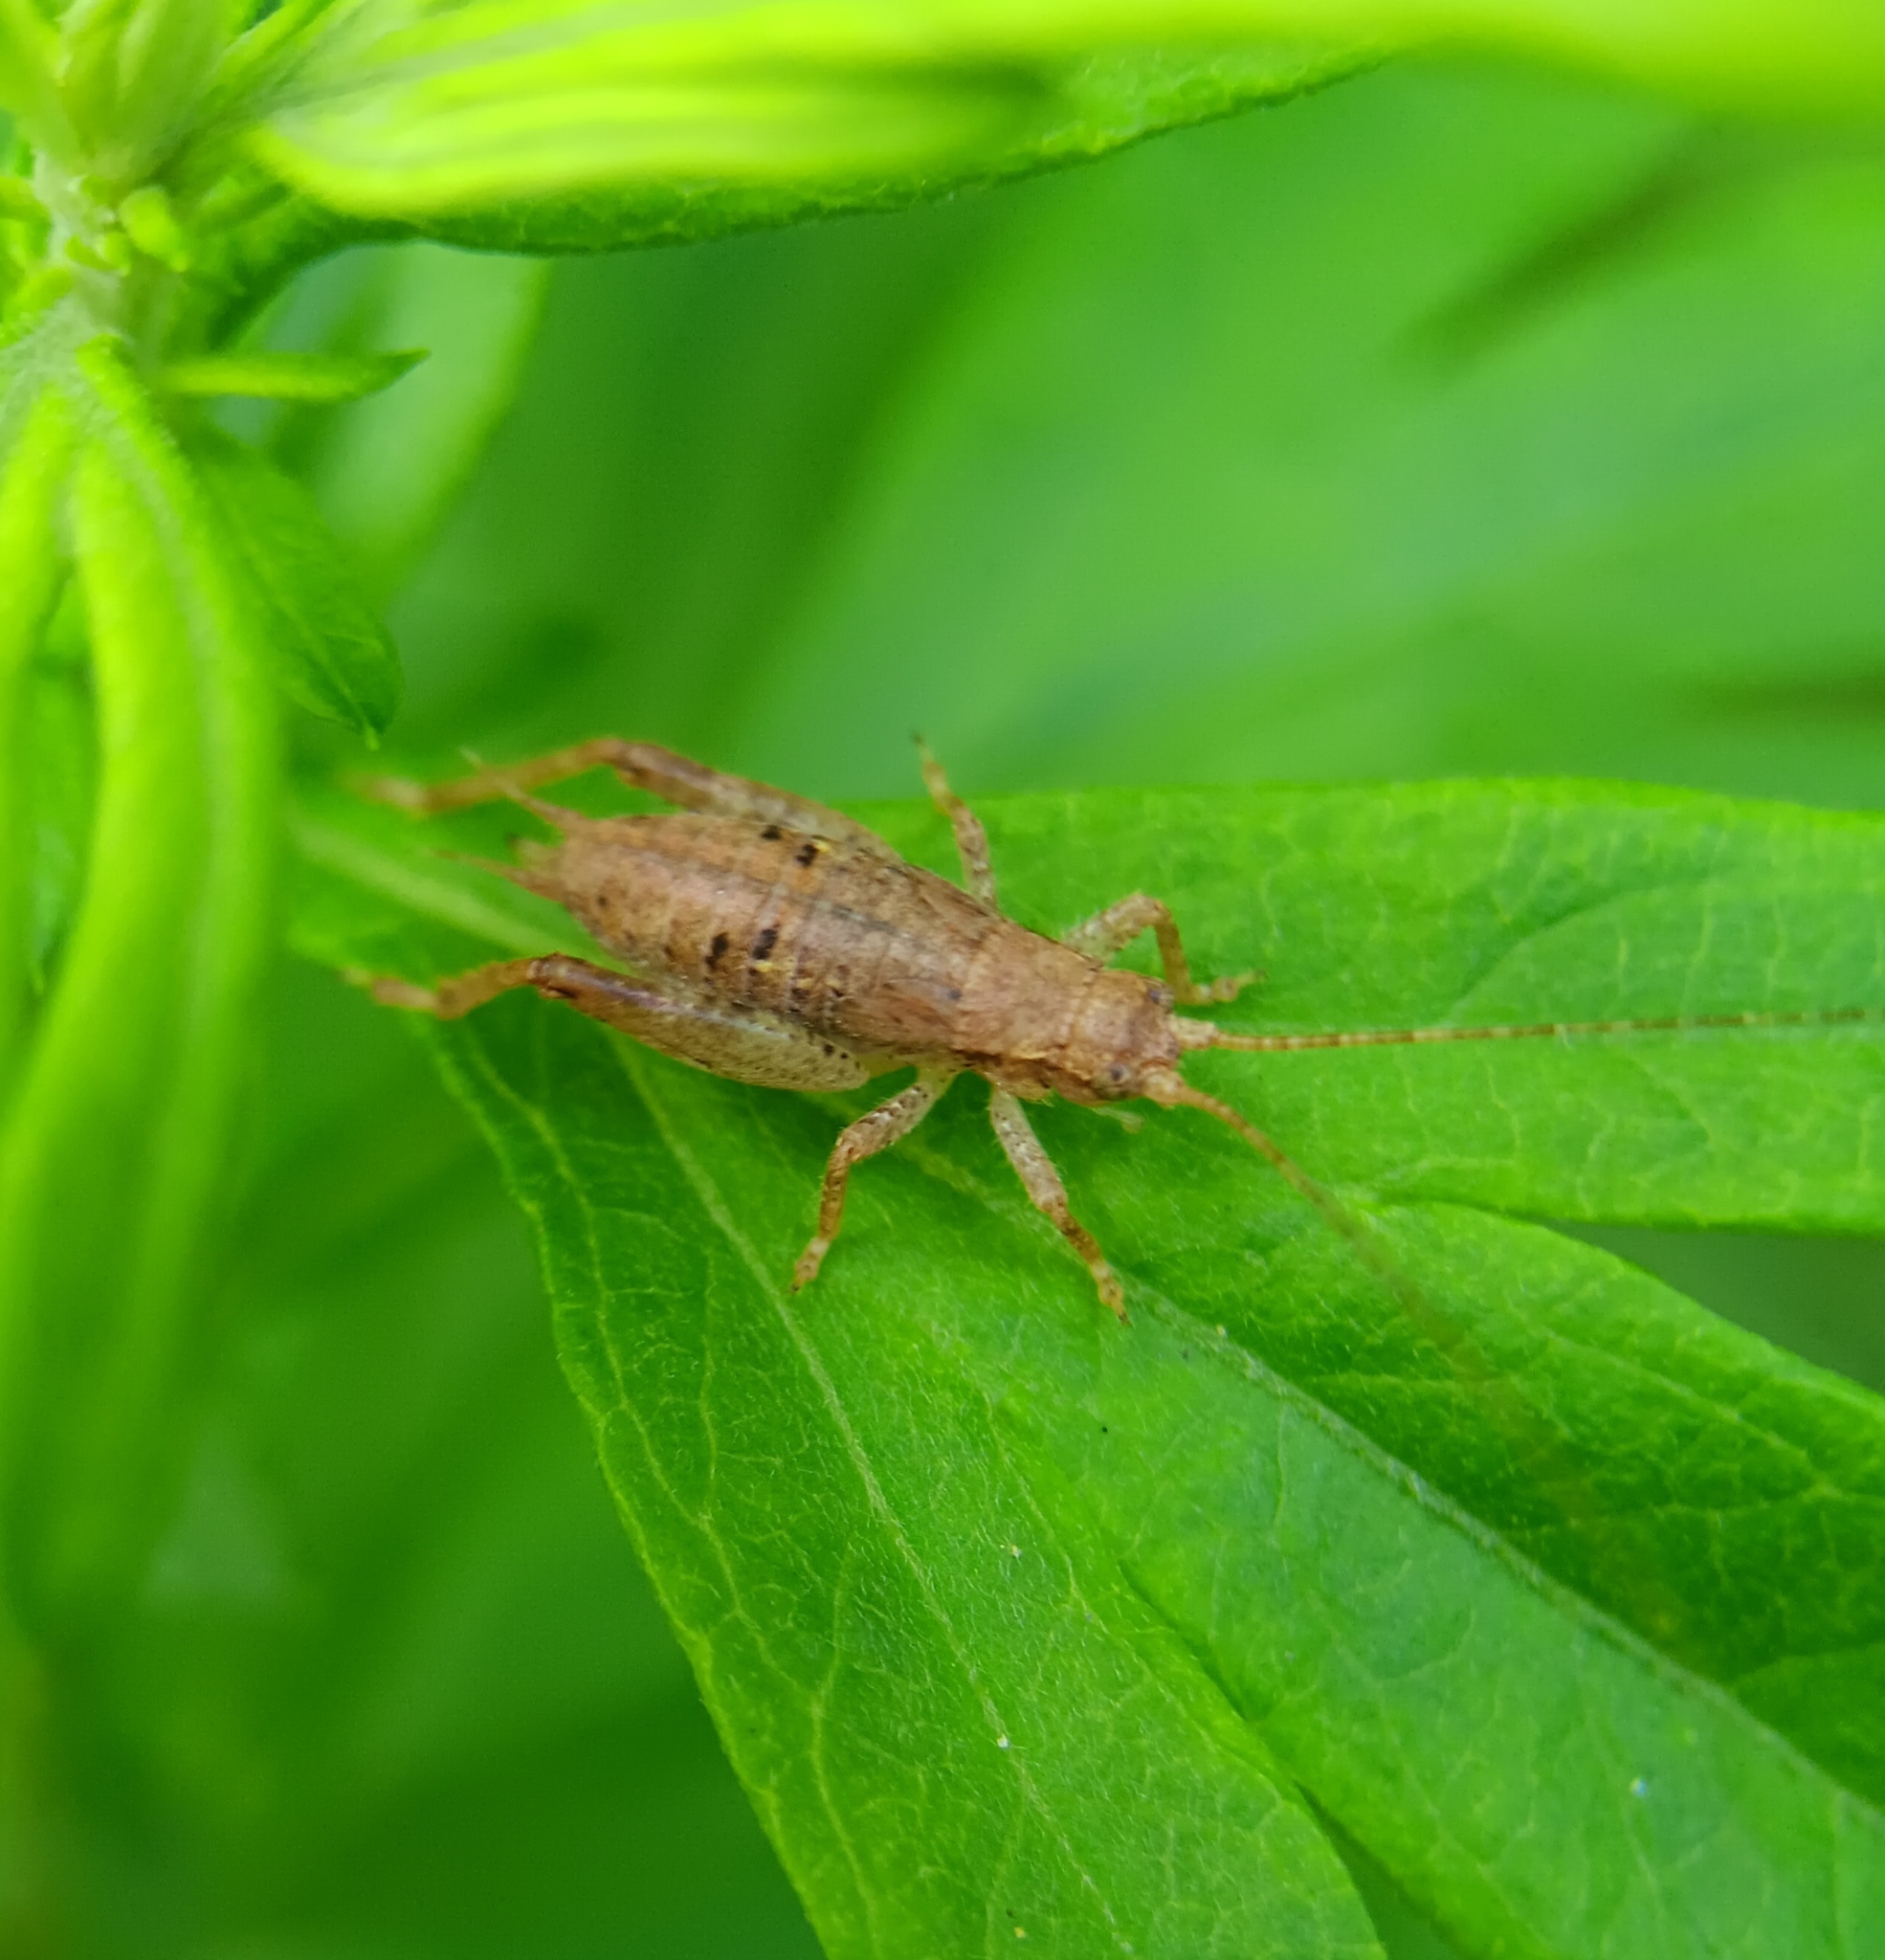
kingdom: Animalia
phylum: Arthropoda
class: Insecta
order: Orthoptera
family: Gryllidae
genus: Hapithus
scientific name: Hapithus saltator
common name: Jumping bush cricket
